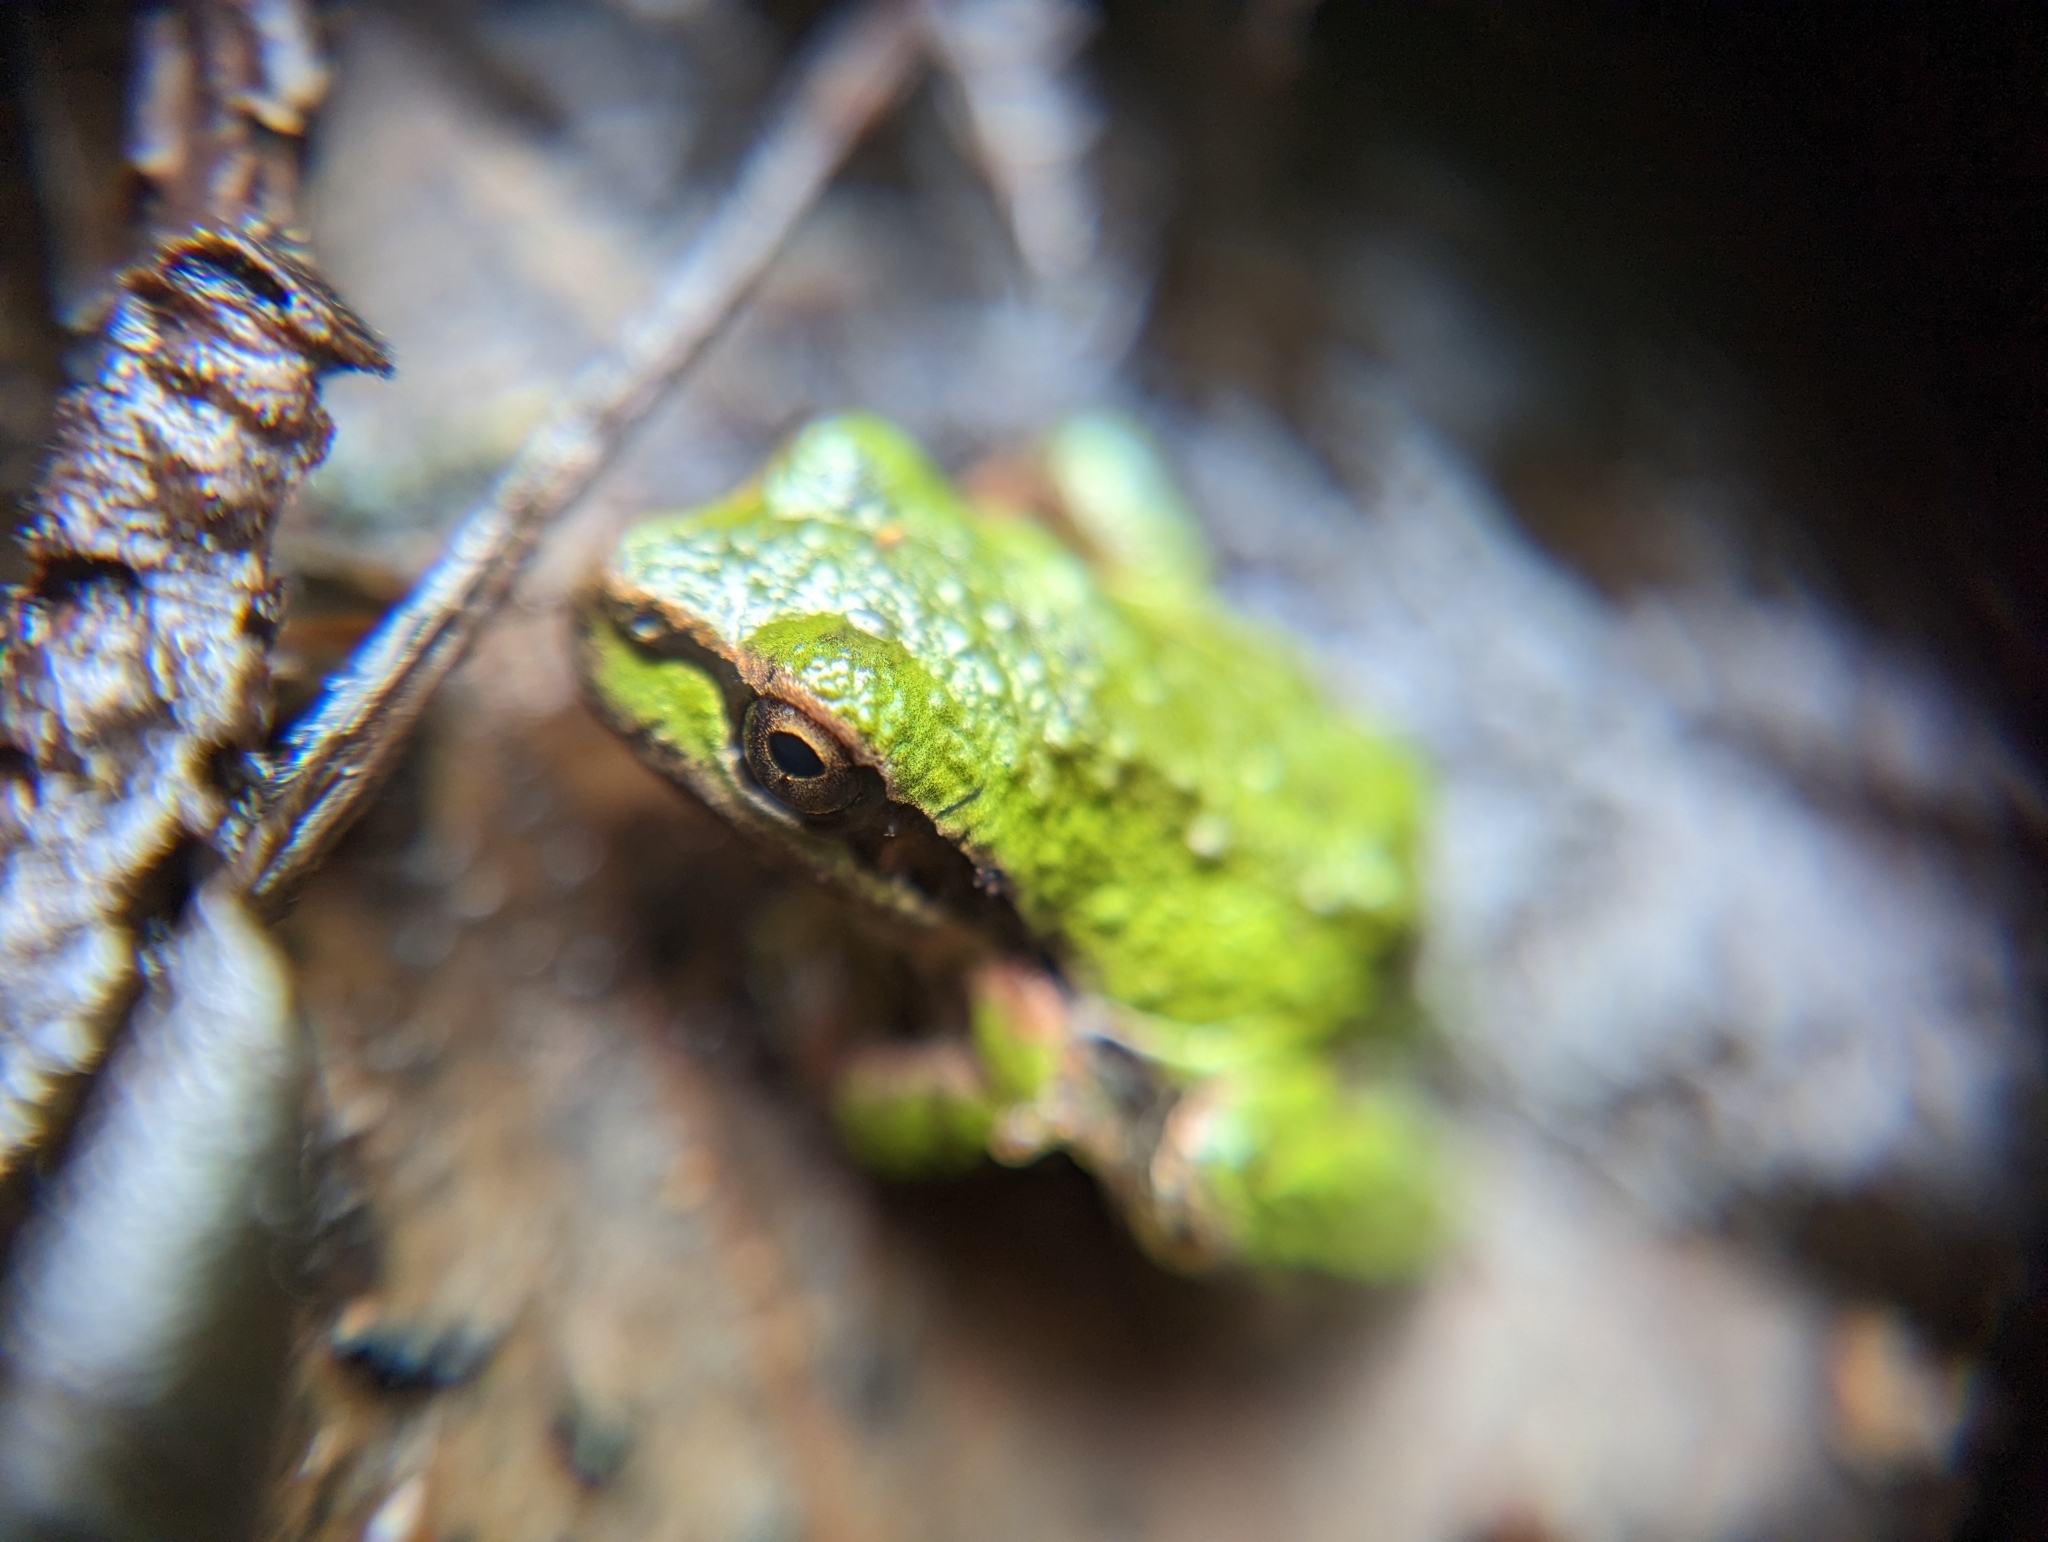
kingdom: Animalia
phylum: Chordata
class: Amphibia
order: Anura
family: Hylidae
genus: Pseudacris
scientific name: Pseudacris regilla
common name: Pacific chorus frog
